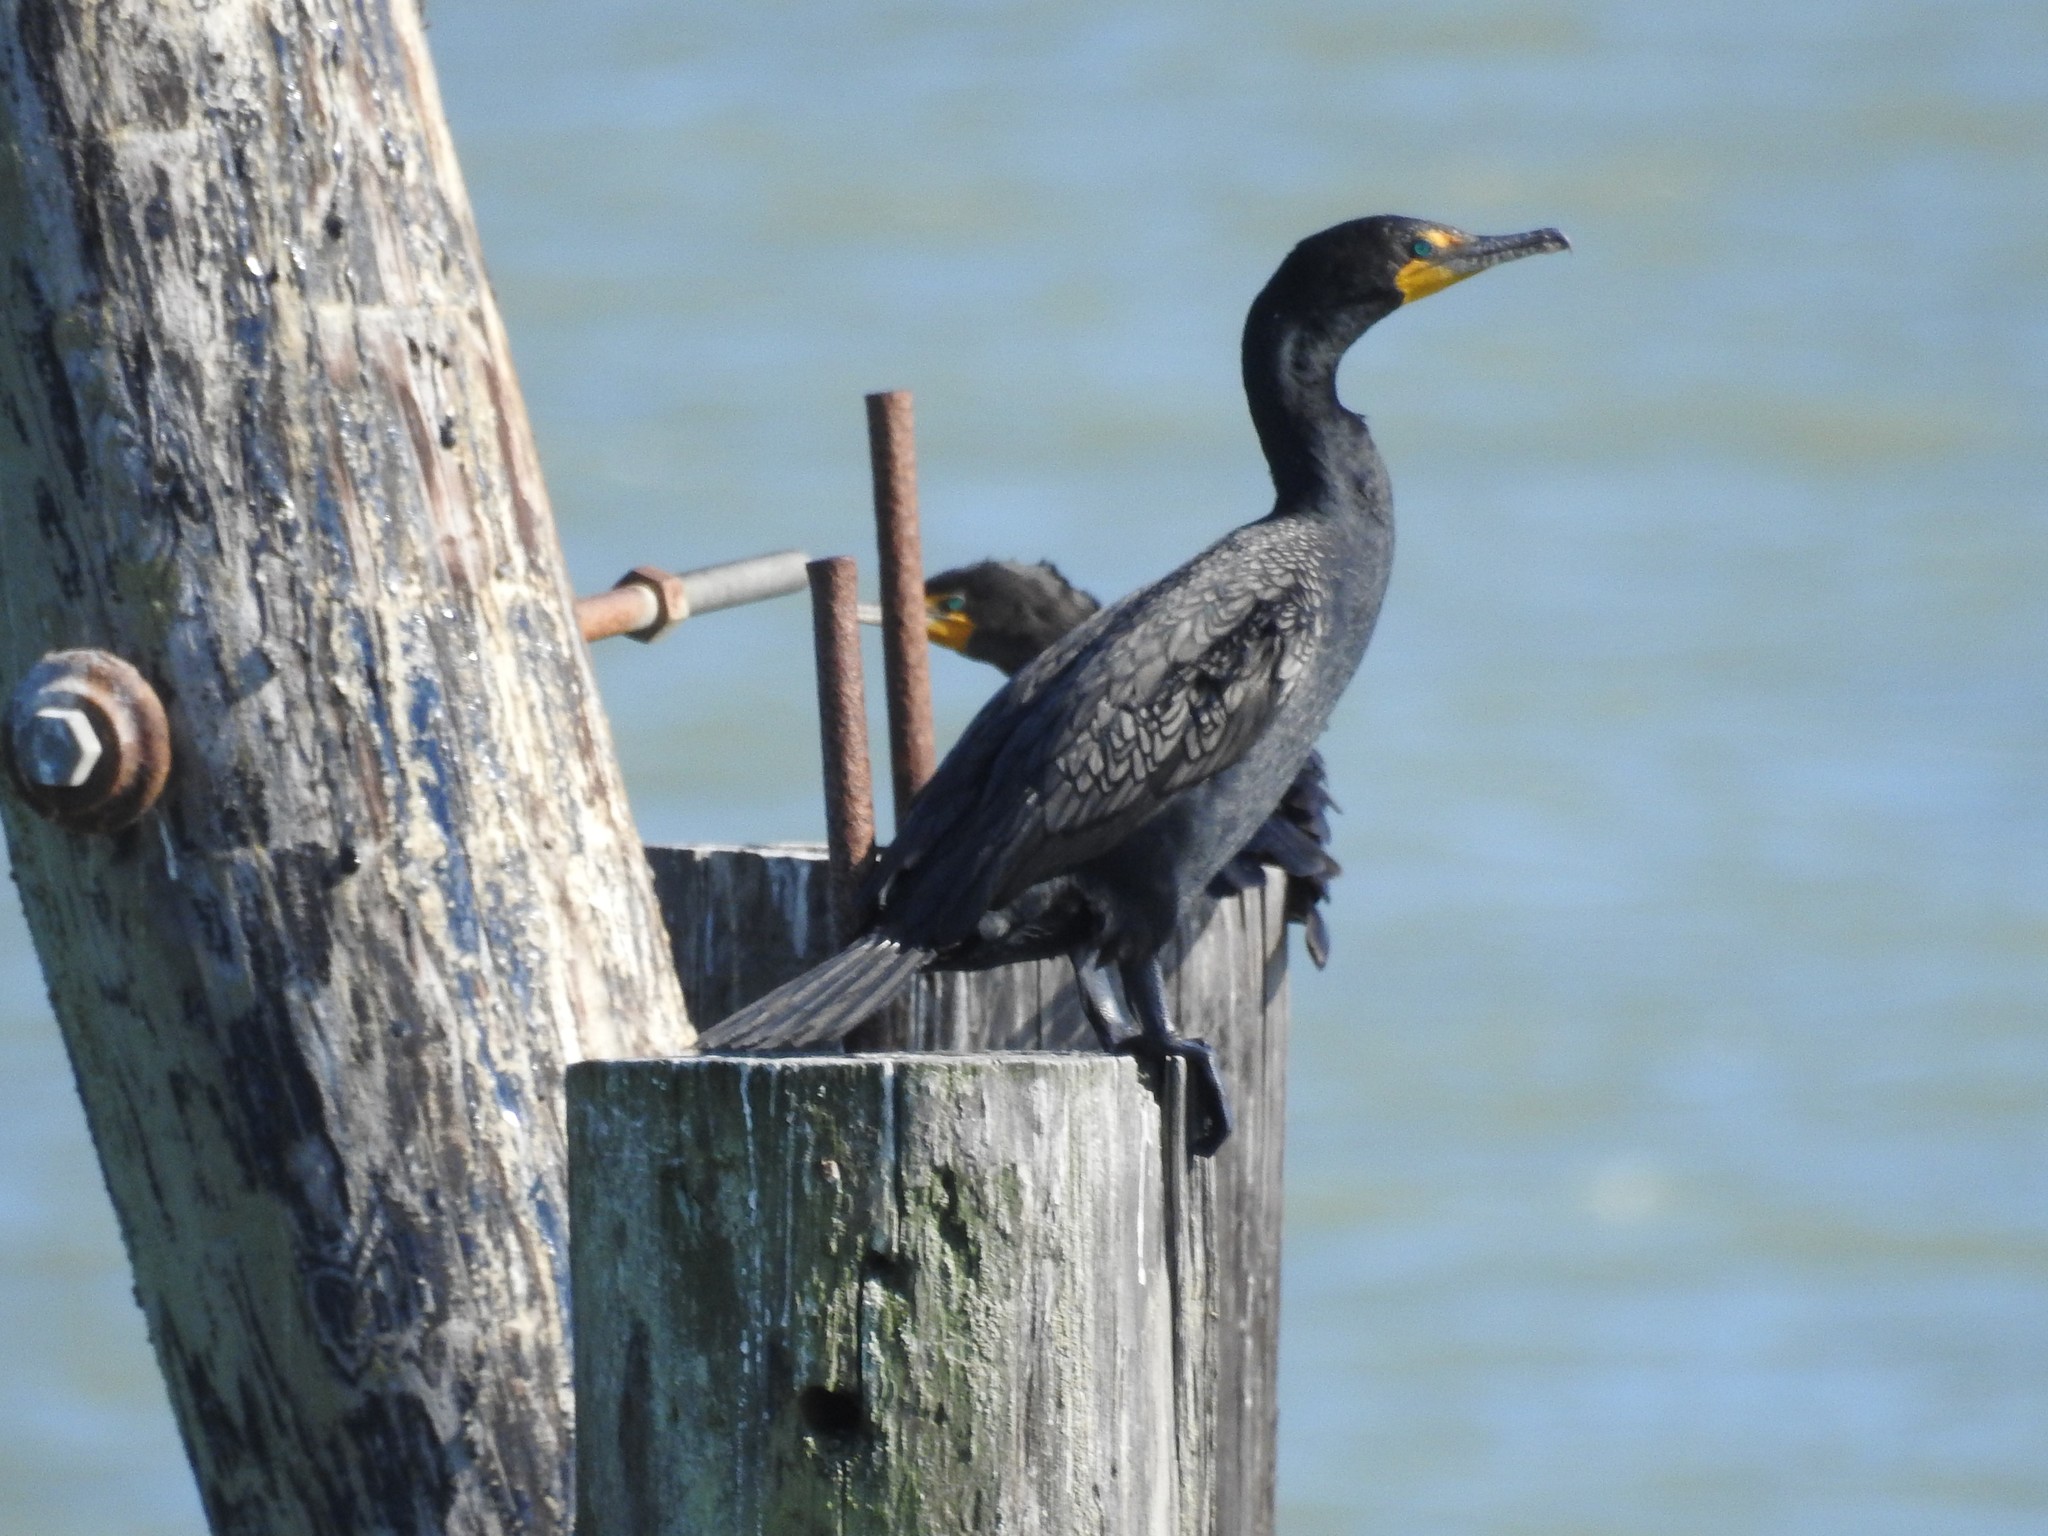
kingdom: Animalia
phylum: Chordata
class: Aves
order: Suliformes
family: Phalacrocoracidae
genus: Phalacrocorax
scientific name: Phalacrocorax auritus
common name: Double-crested cormorant
